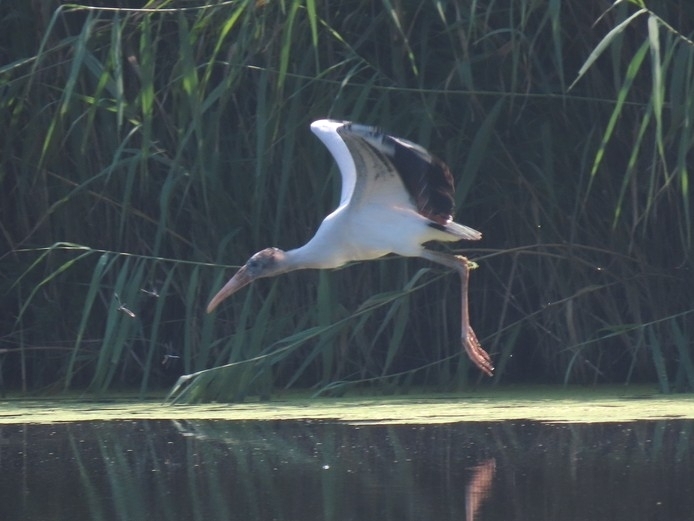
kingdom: Animalia
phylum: Chordata
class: Aves
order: Ciconiiformes
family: Ciconiidae
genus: Mycteria
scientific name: Mycteria americana
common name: Wood stork
